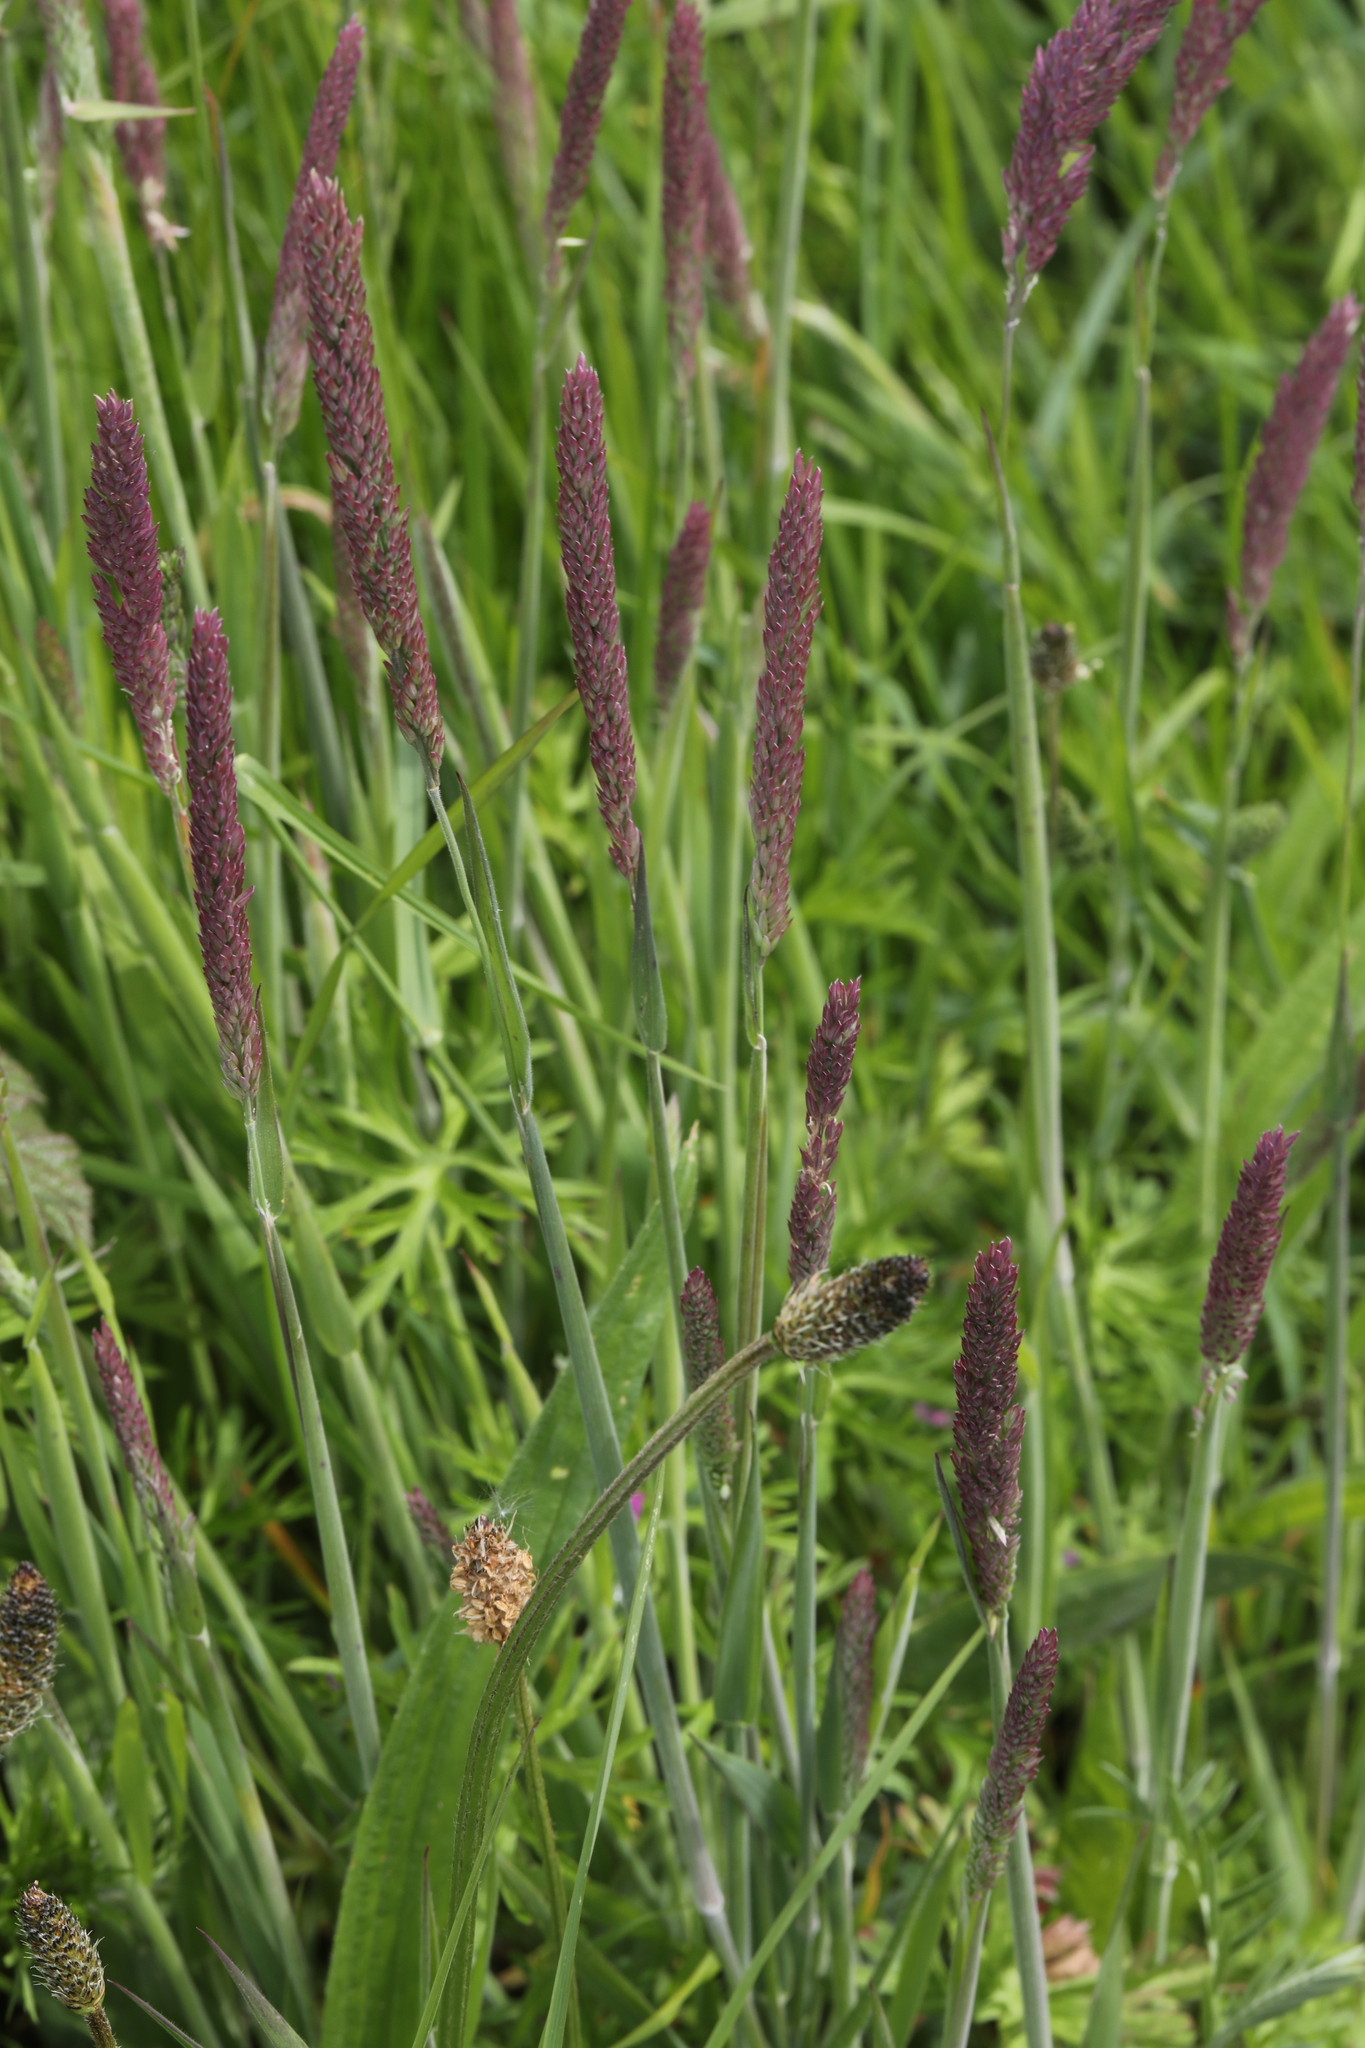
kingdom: Plantae
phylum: Tracheophyta
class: Liliopsida
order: Poales
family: Poaceae
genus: Holcus
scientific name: Holcus lanatus
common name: Yorkshire-fog
